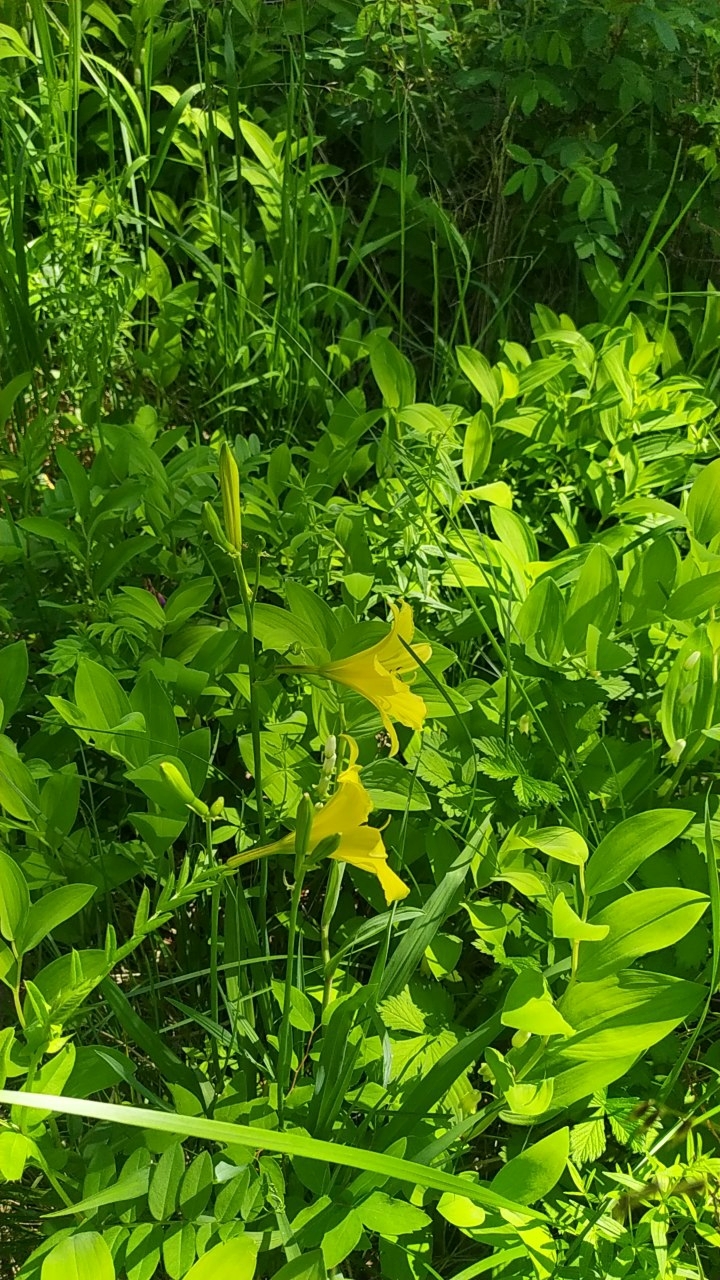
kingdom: Plantae
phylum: Tracheophyta
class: Liliopsida
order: Asparagales
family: Asphodelaceae
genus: Hemerocallis
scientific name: Hemerocallis minor
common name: Small daylily
